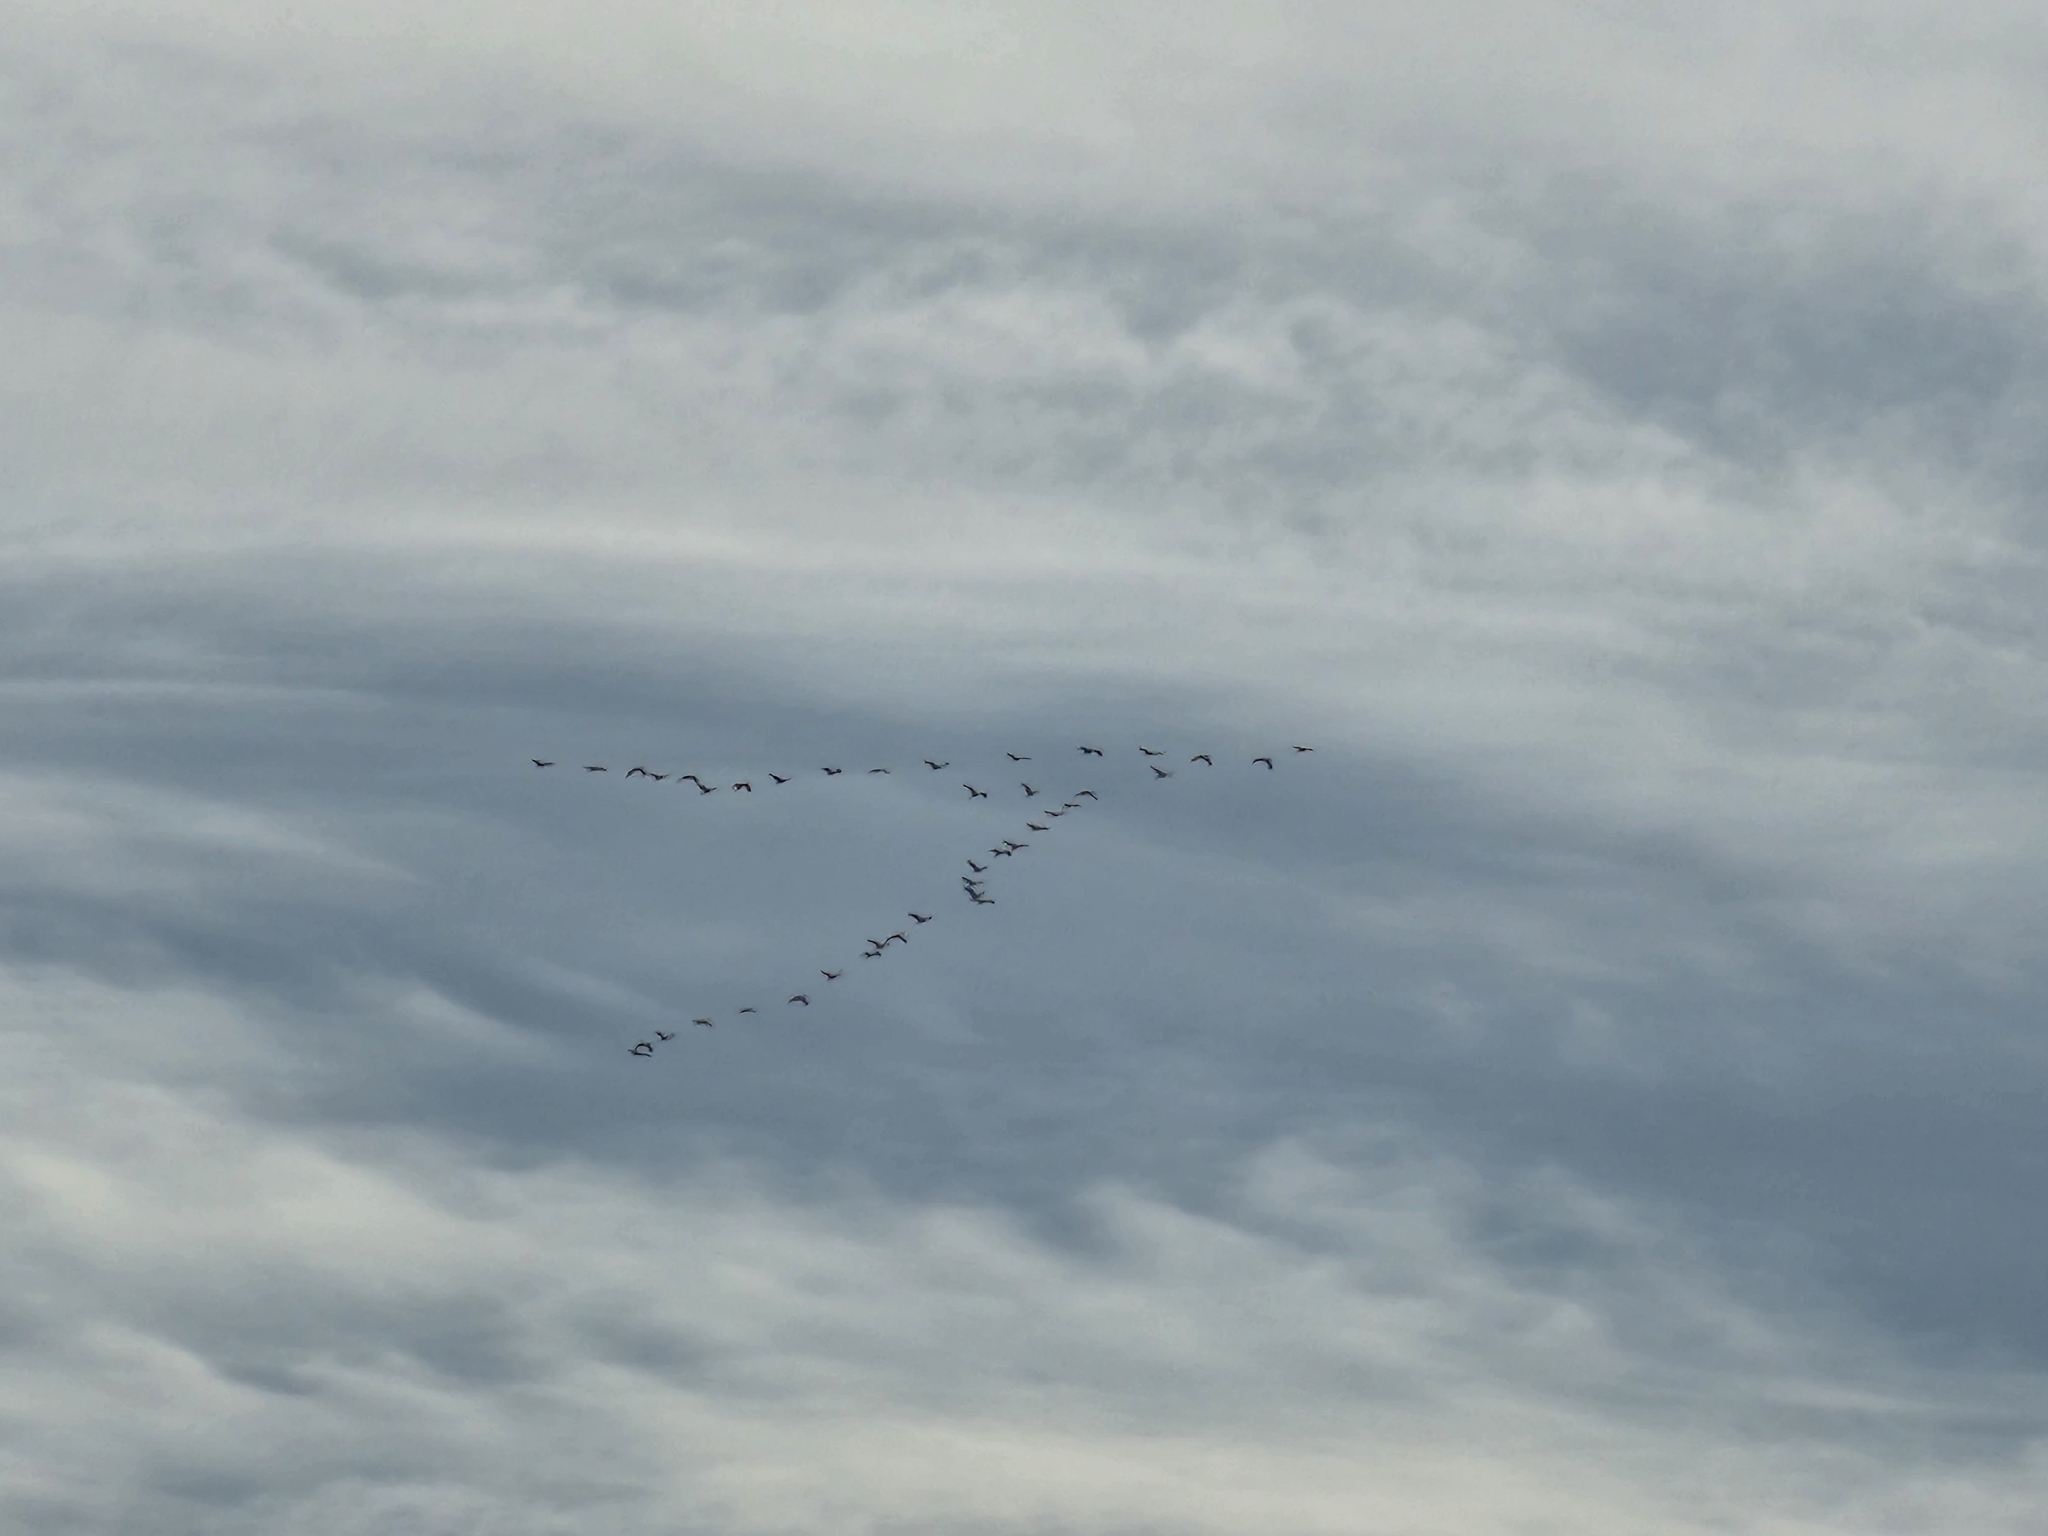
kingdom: Animalia
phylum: Chordata
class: Aves
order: Gruiformes
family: Gruidae
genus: Grus
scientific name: Grus canadensis
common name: Sandhill crane
